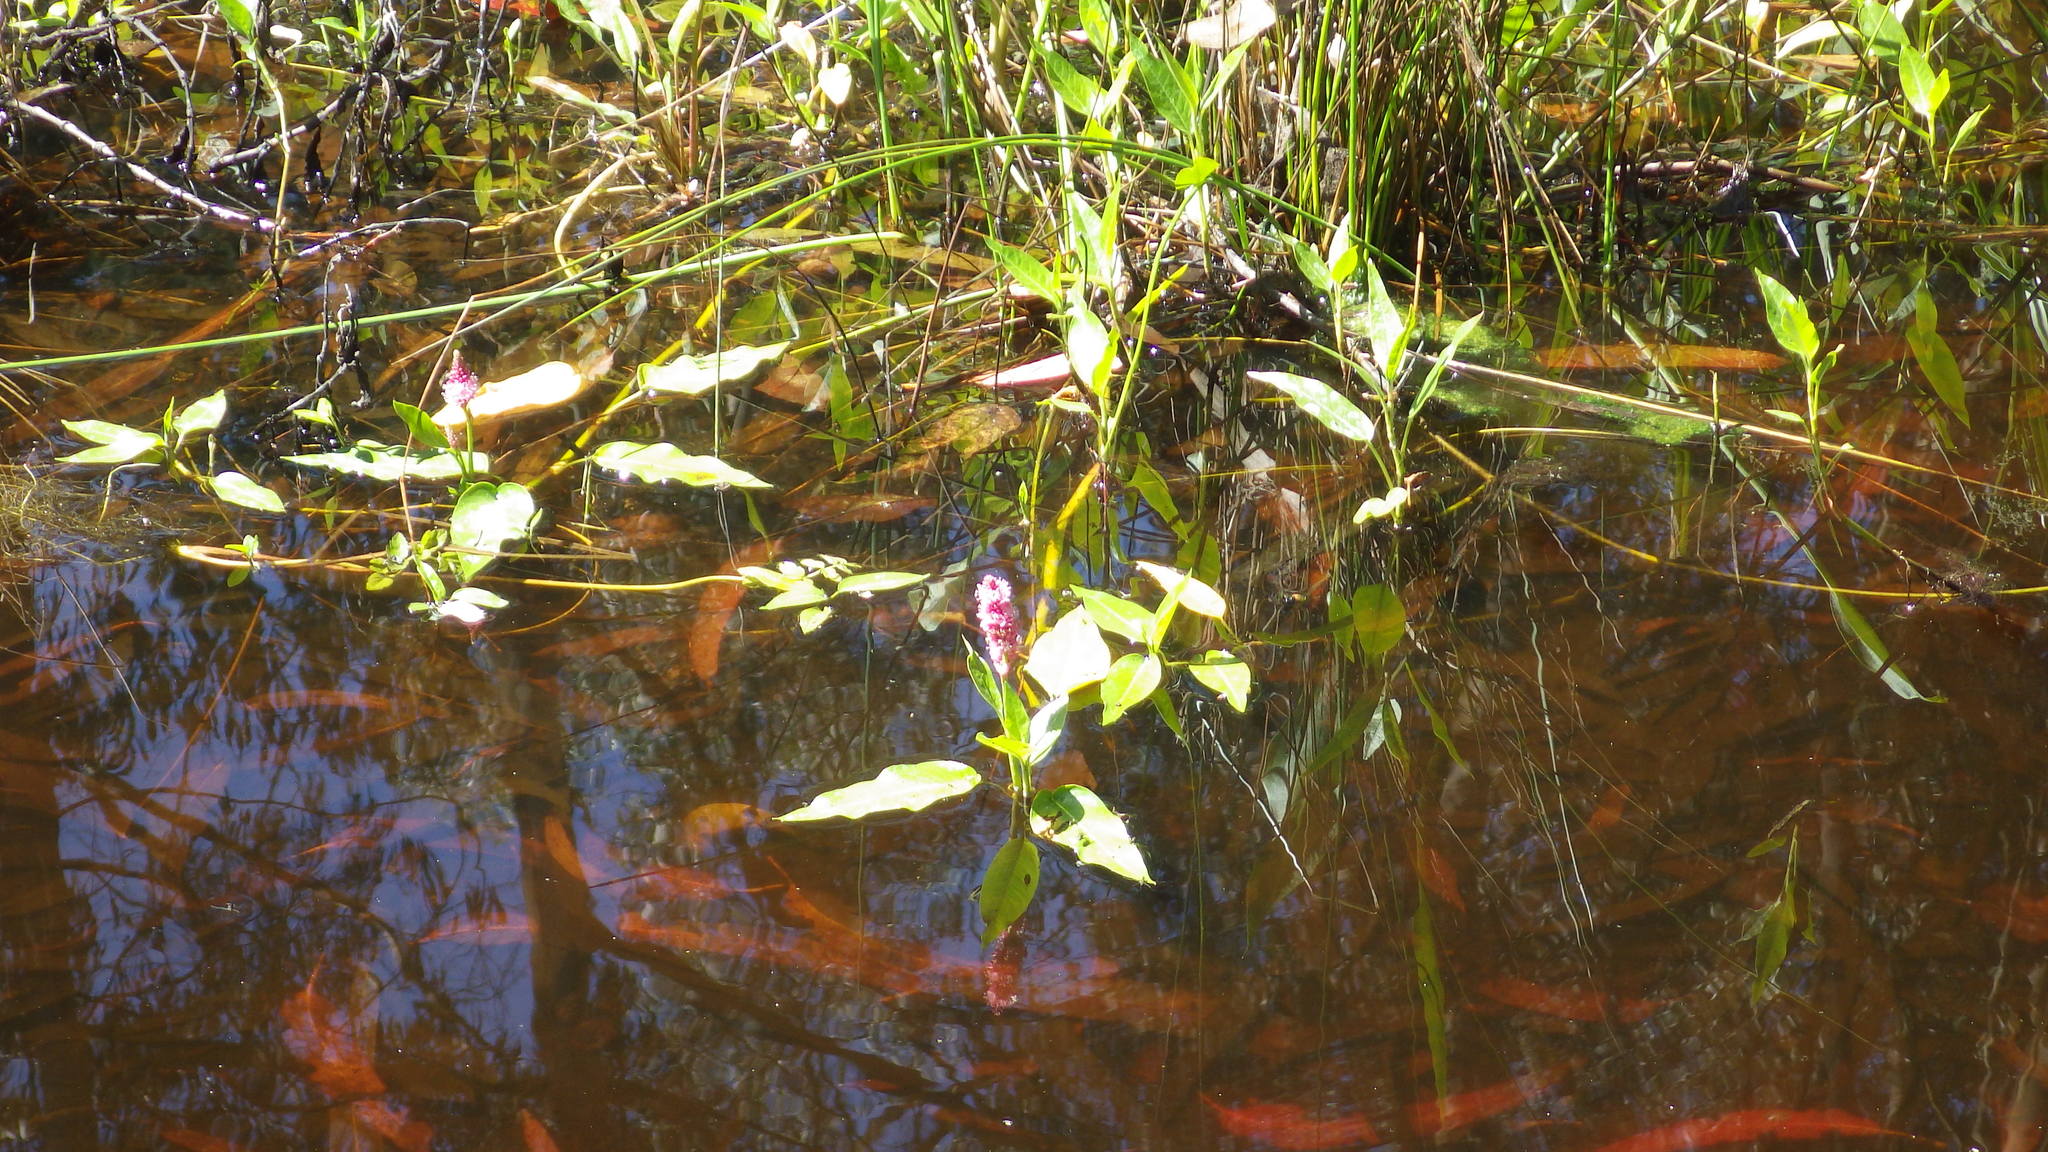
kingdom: Plantae
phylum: Tracheophyta
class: Magnoliopsida
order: Caryophyllales
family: Polygonaceae
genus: Persicaria
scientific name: Persicaria amphibia
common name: Amphibious bistort
